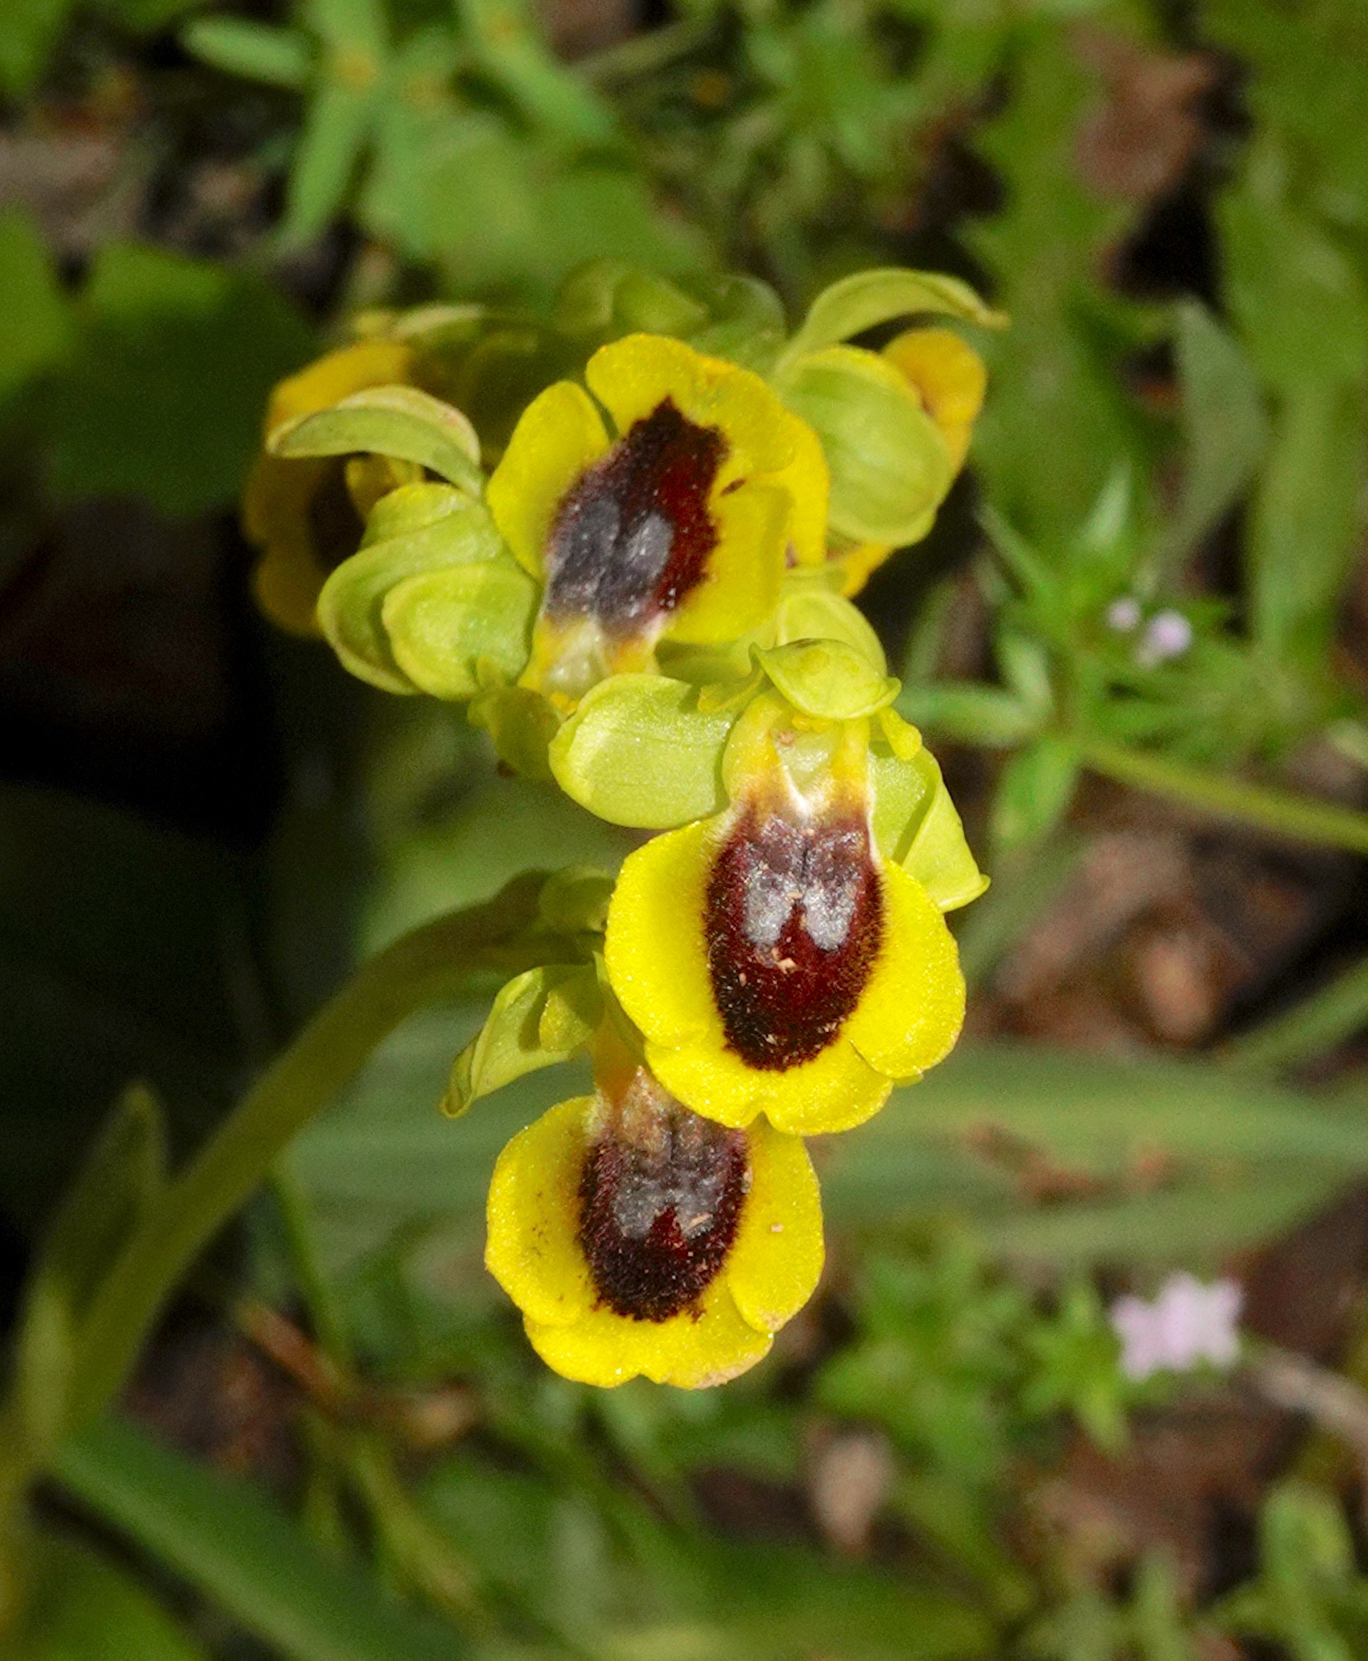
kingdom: Plantae
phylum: Tracheophyta
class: Liliopsida
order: Asparagales
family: Orchidaceae
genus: Ophrys
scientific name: Ophrys lutea
